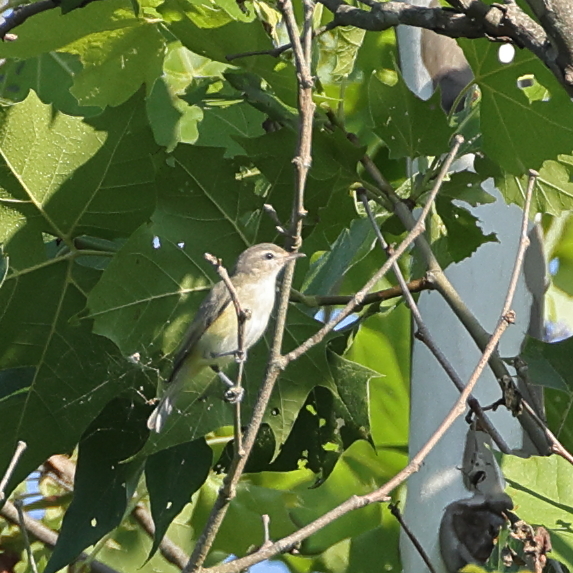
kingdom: Animalia
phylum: Chordata
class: Aves
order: Passeriformes
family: Vireonidae
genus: Vireo
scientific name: Vireo gilvus
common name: Warbling vireo
